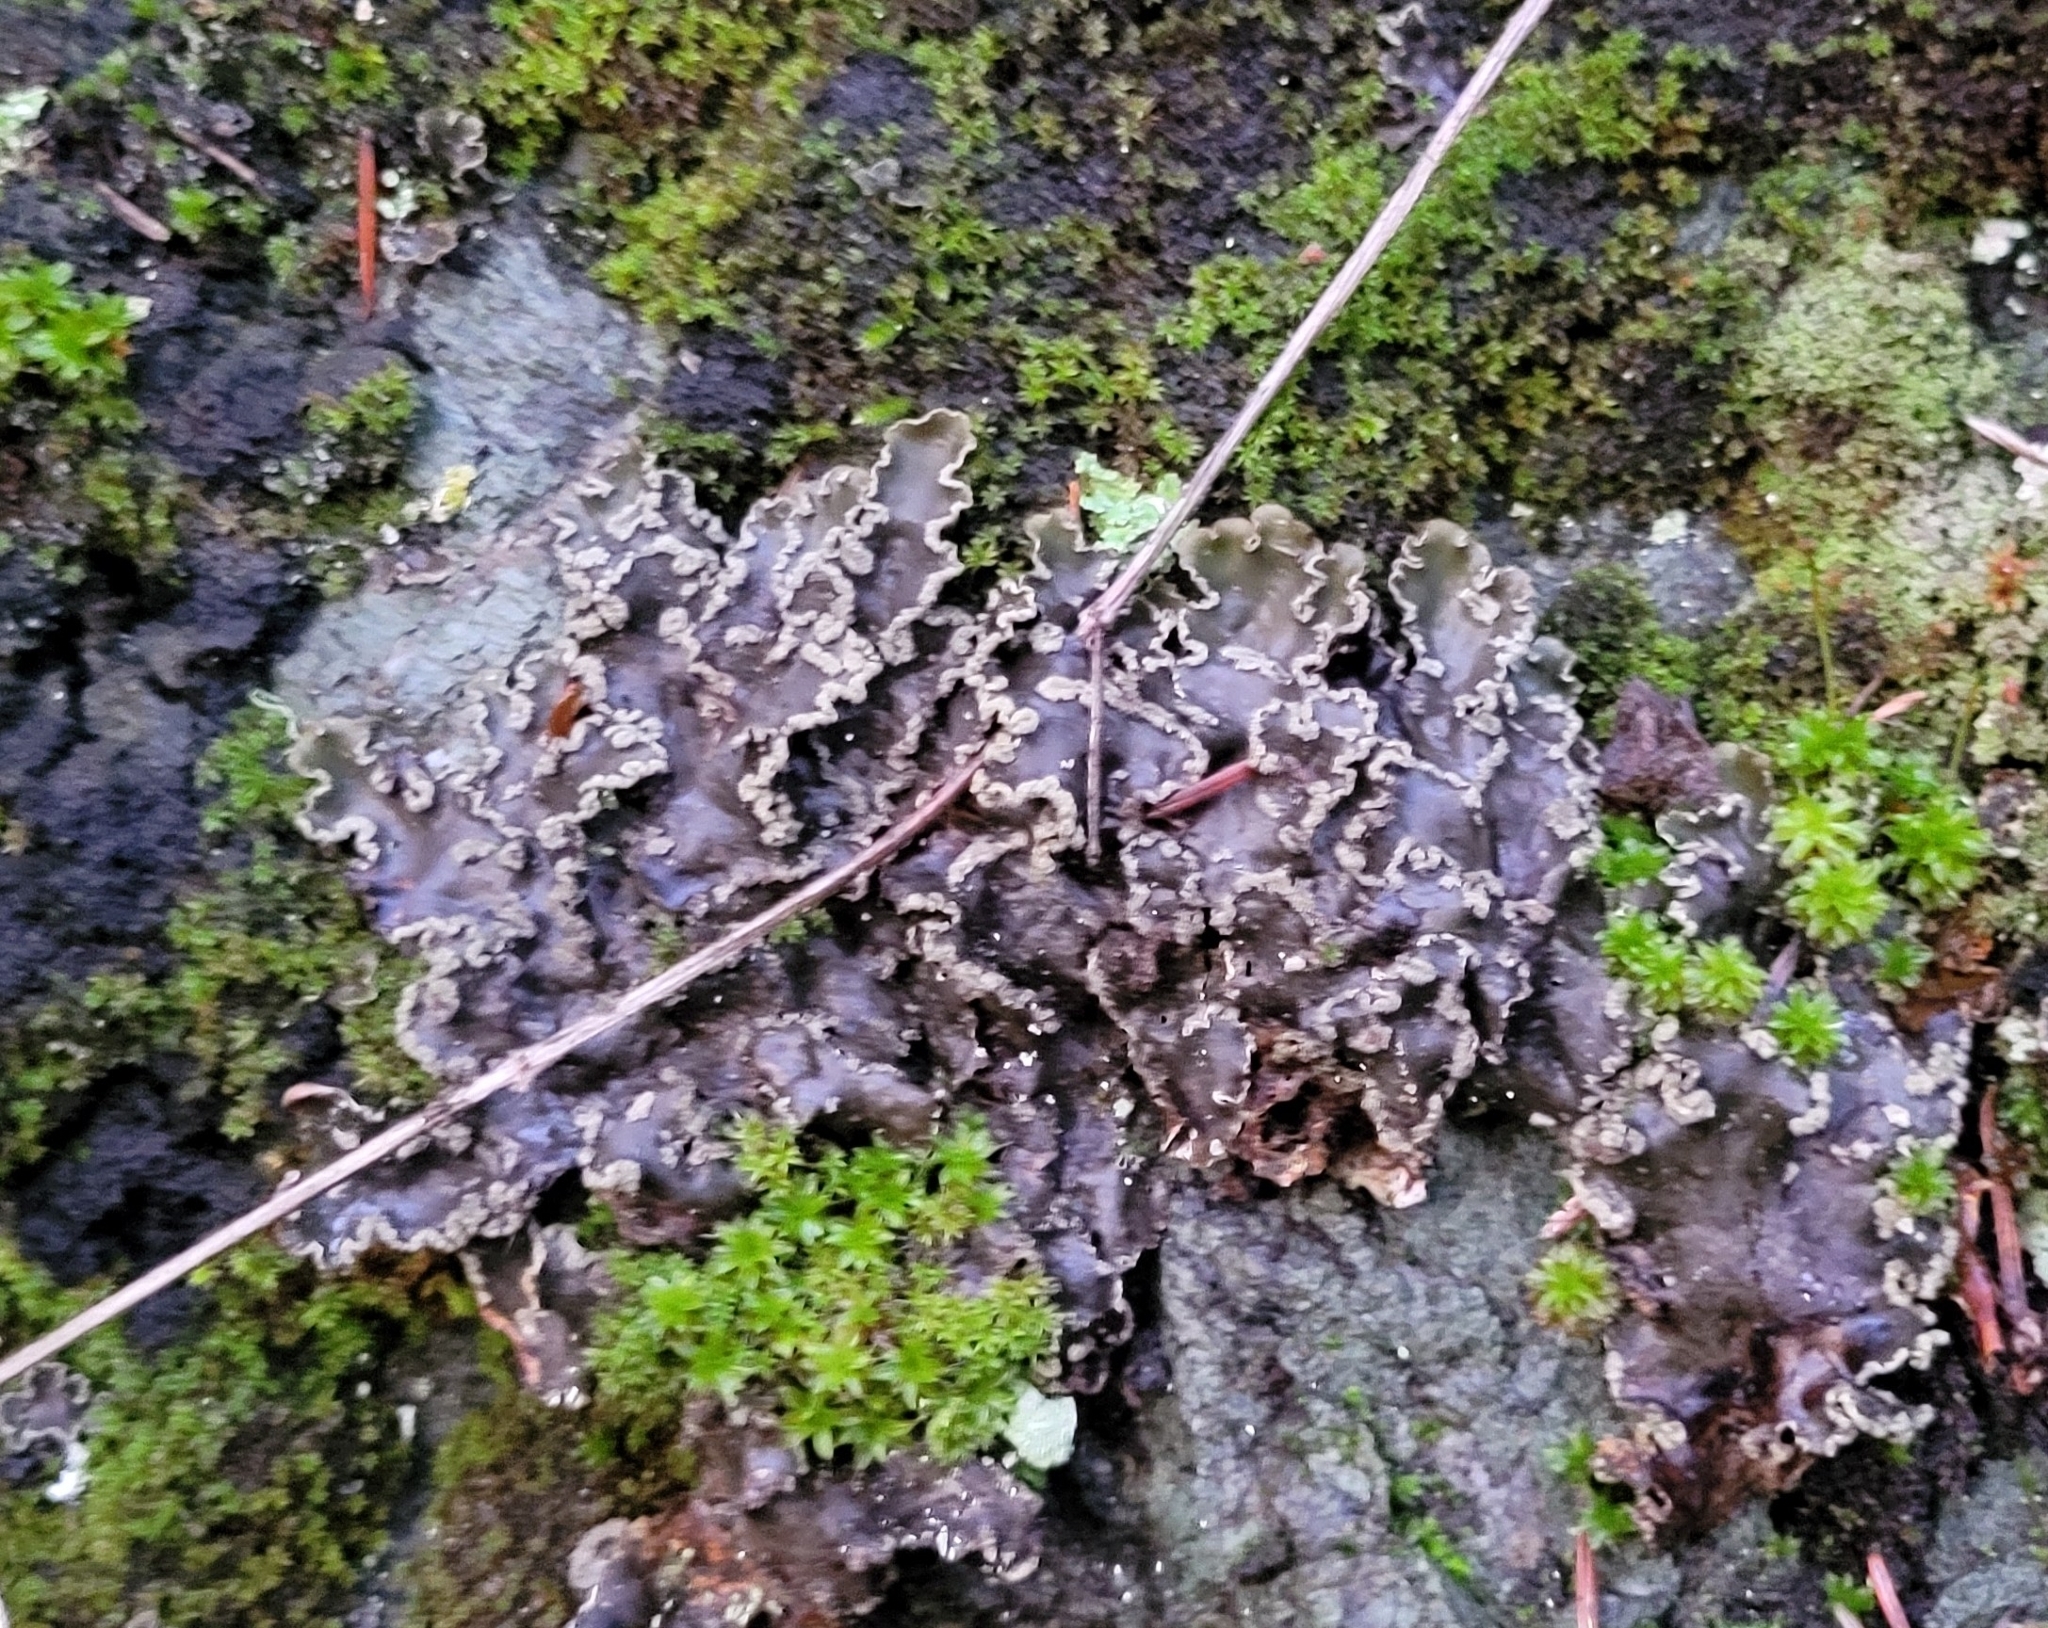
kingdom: Fungi
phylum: Ascomycota
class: Lecanoromycetes
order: Peltigerales
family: Peltigeraceae
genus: Peltigera
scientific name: Peltigera collina
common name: Gritty tree pelt lichen
